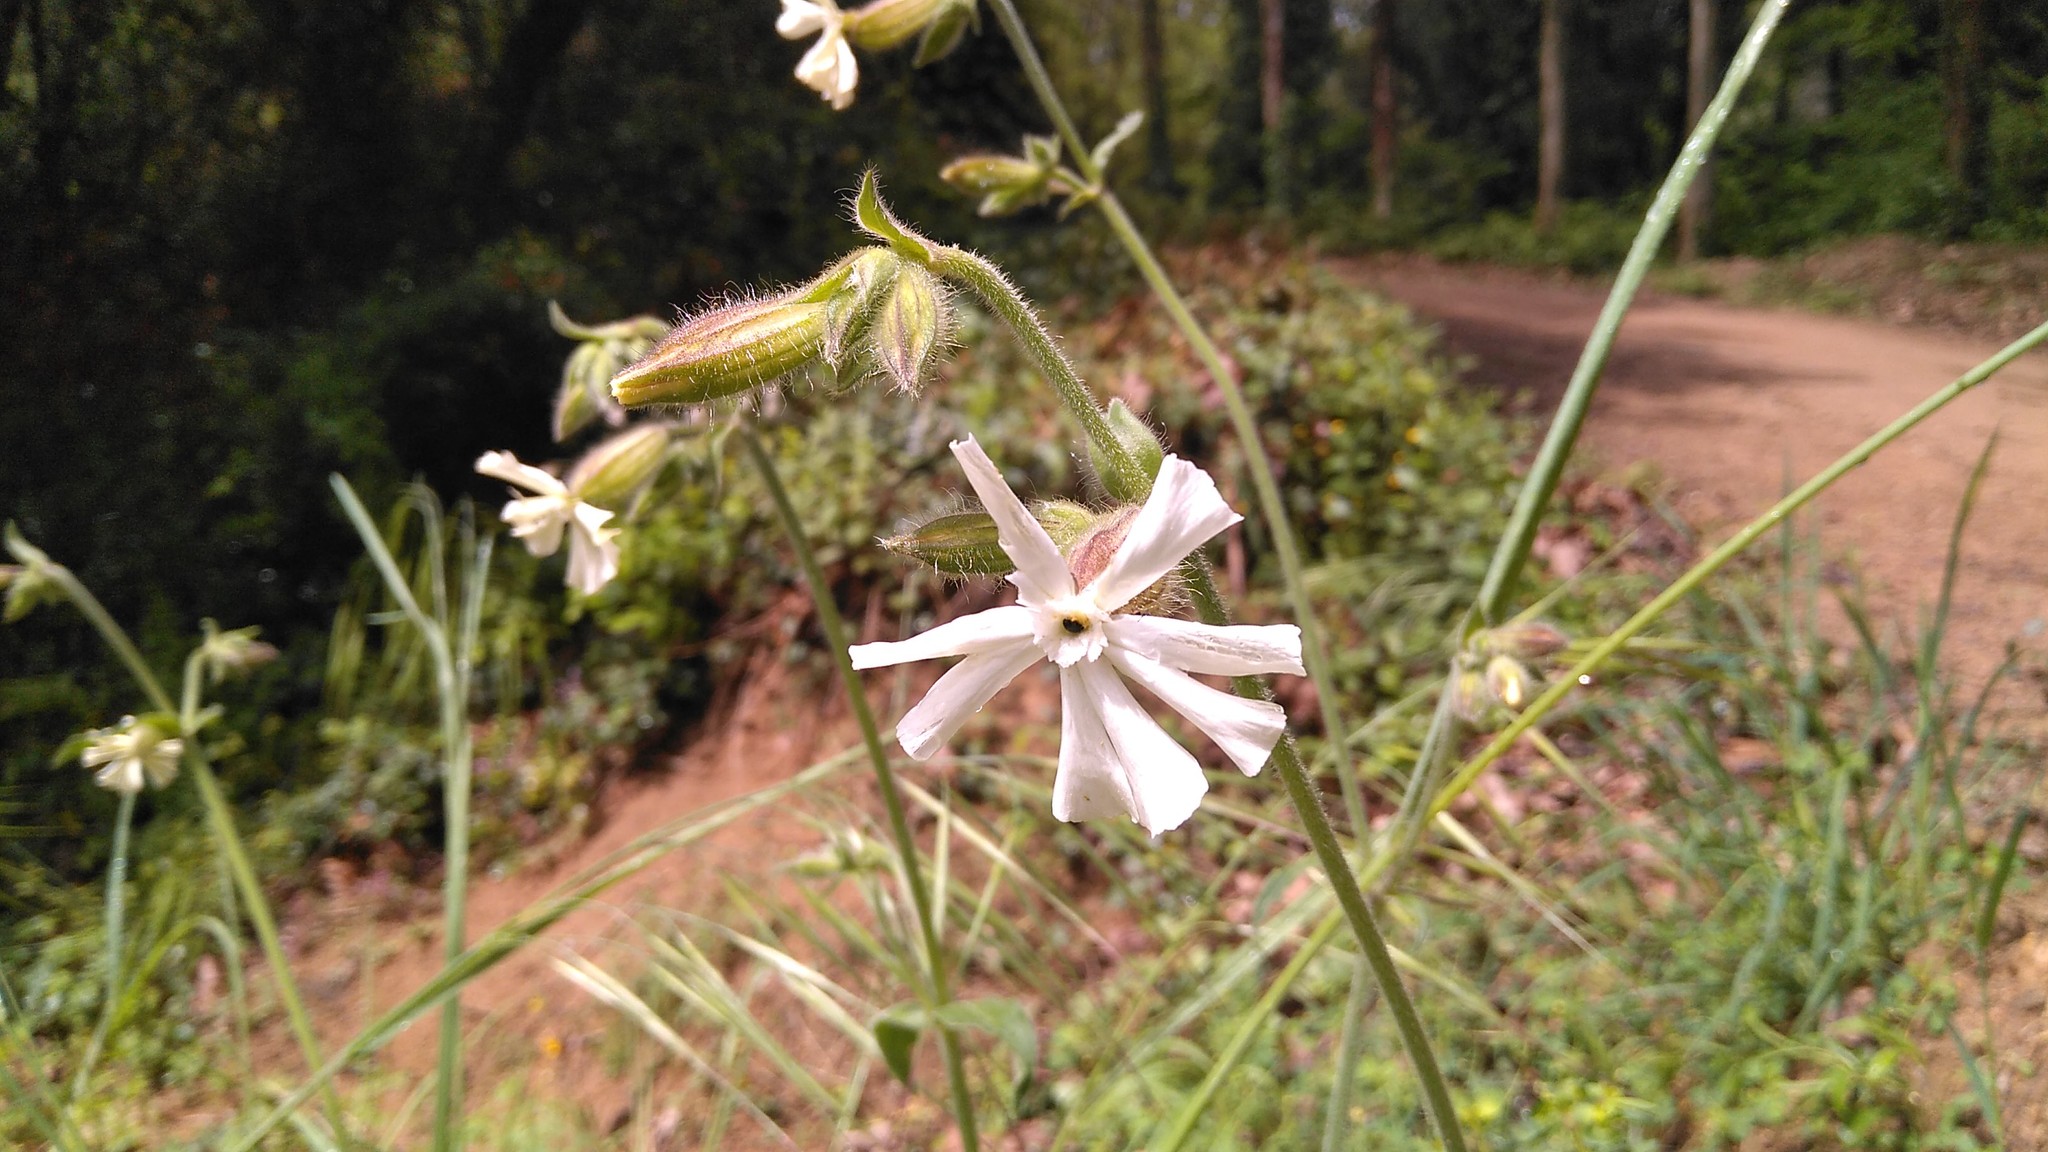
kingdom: Plantae
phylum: Tracheophyta
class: Magnoliopsida
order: Caryophyllales
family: Caryophyllaceae
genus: Silene
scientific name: Silene latifolia
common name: White campion
